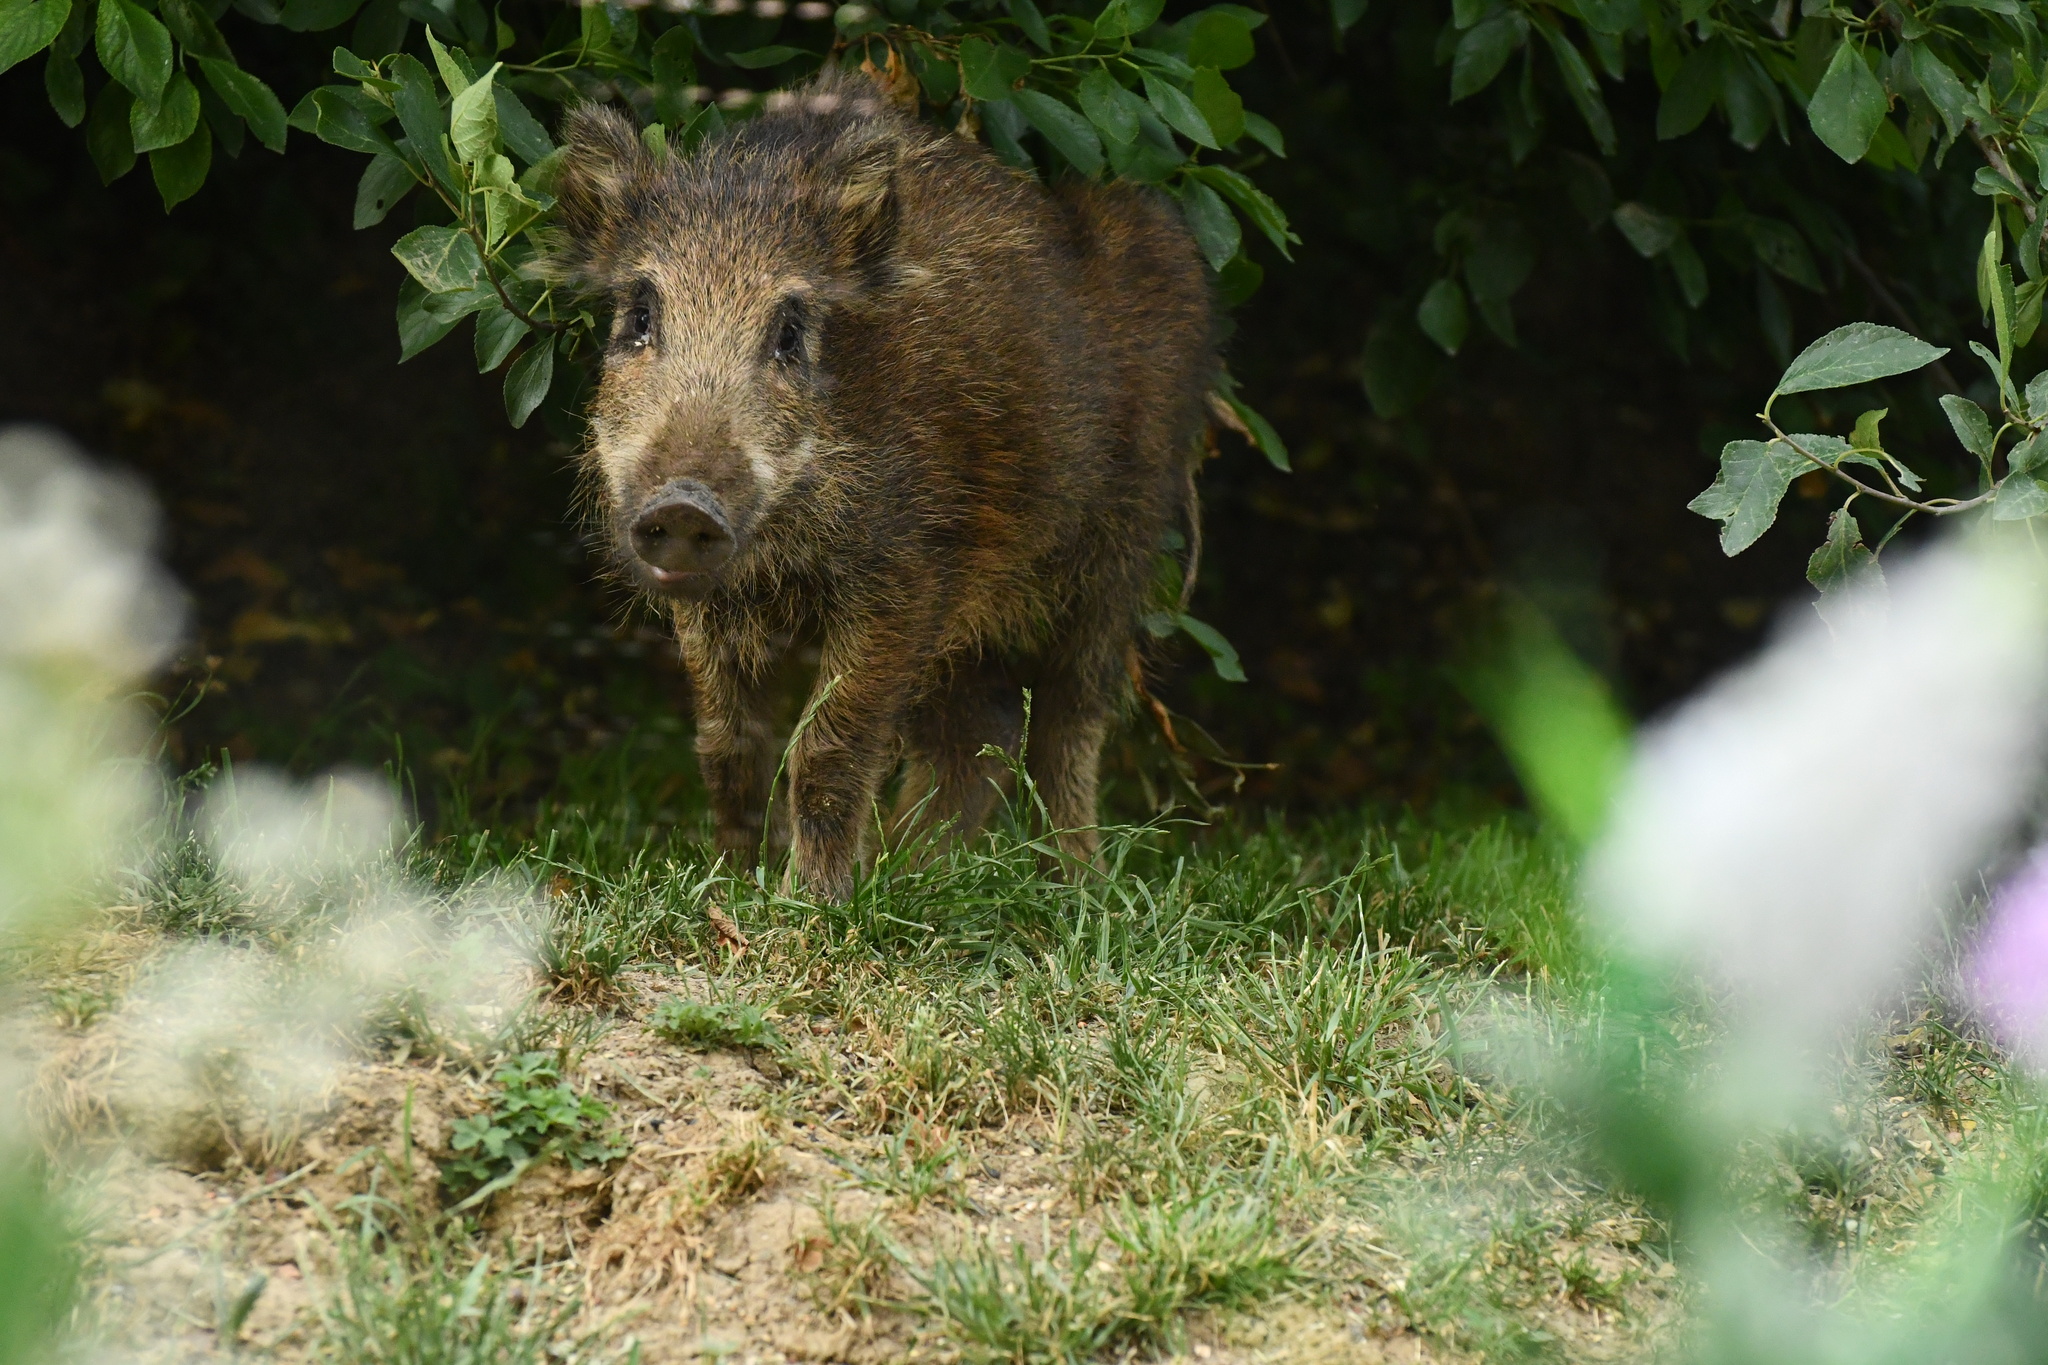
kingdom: Animalia
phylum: Chordata
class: Mammalia
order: Artiodactyla
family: Suidae
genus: Sus
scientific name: Sus scrofa
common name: Wild boar
